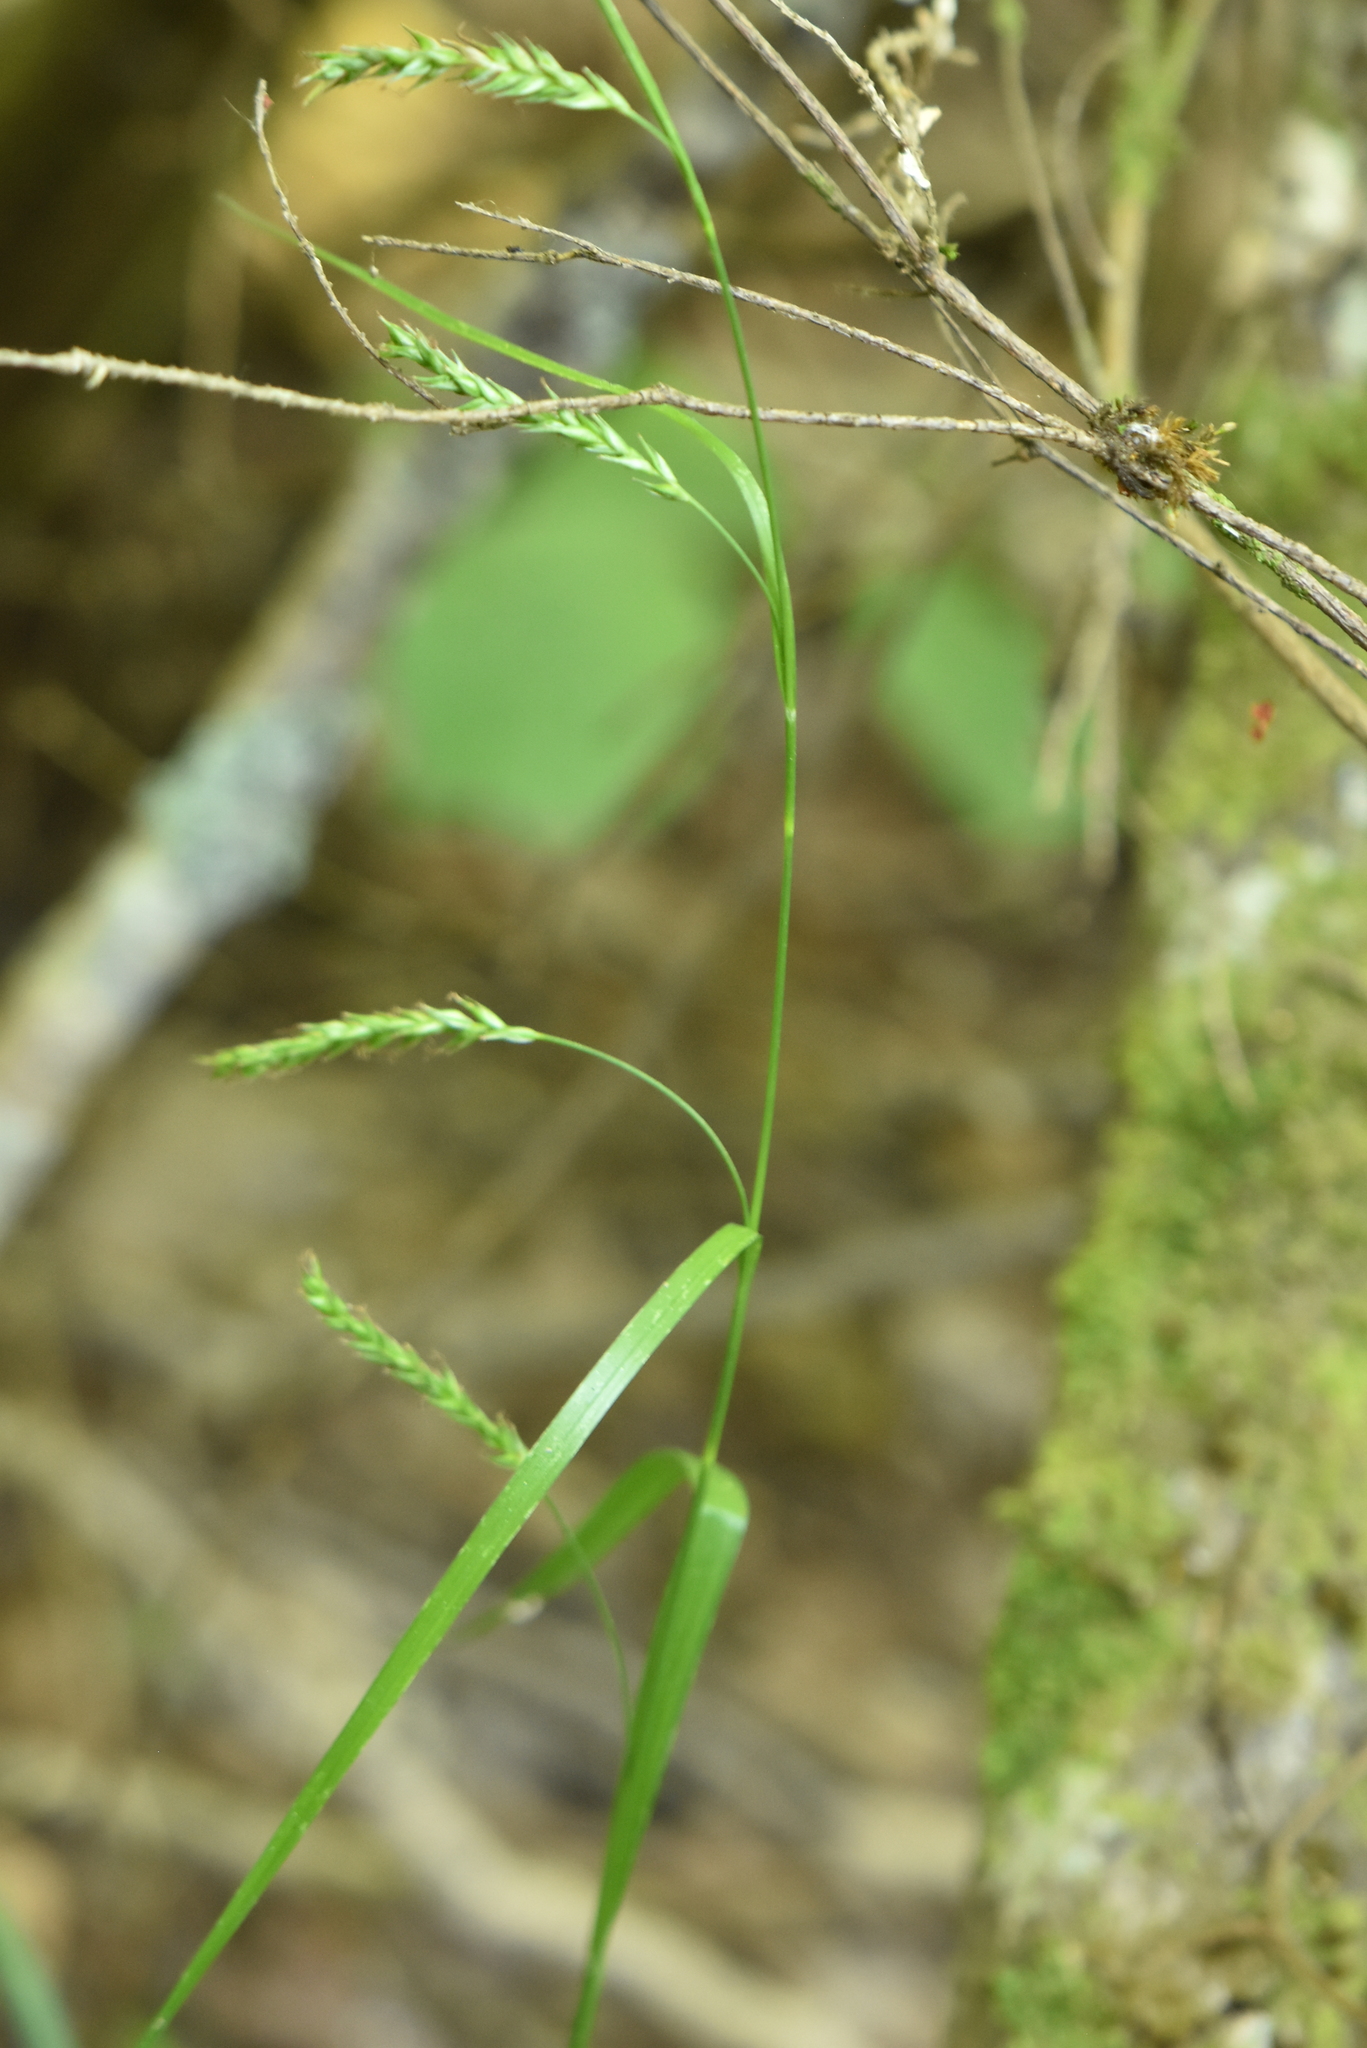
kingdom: Plantae
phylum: Tracheophyta
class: Liliopsida
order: Poales
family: Cyperaceae
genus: Carex
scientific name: Carex sylvatica
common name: Wood-sedge
